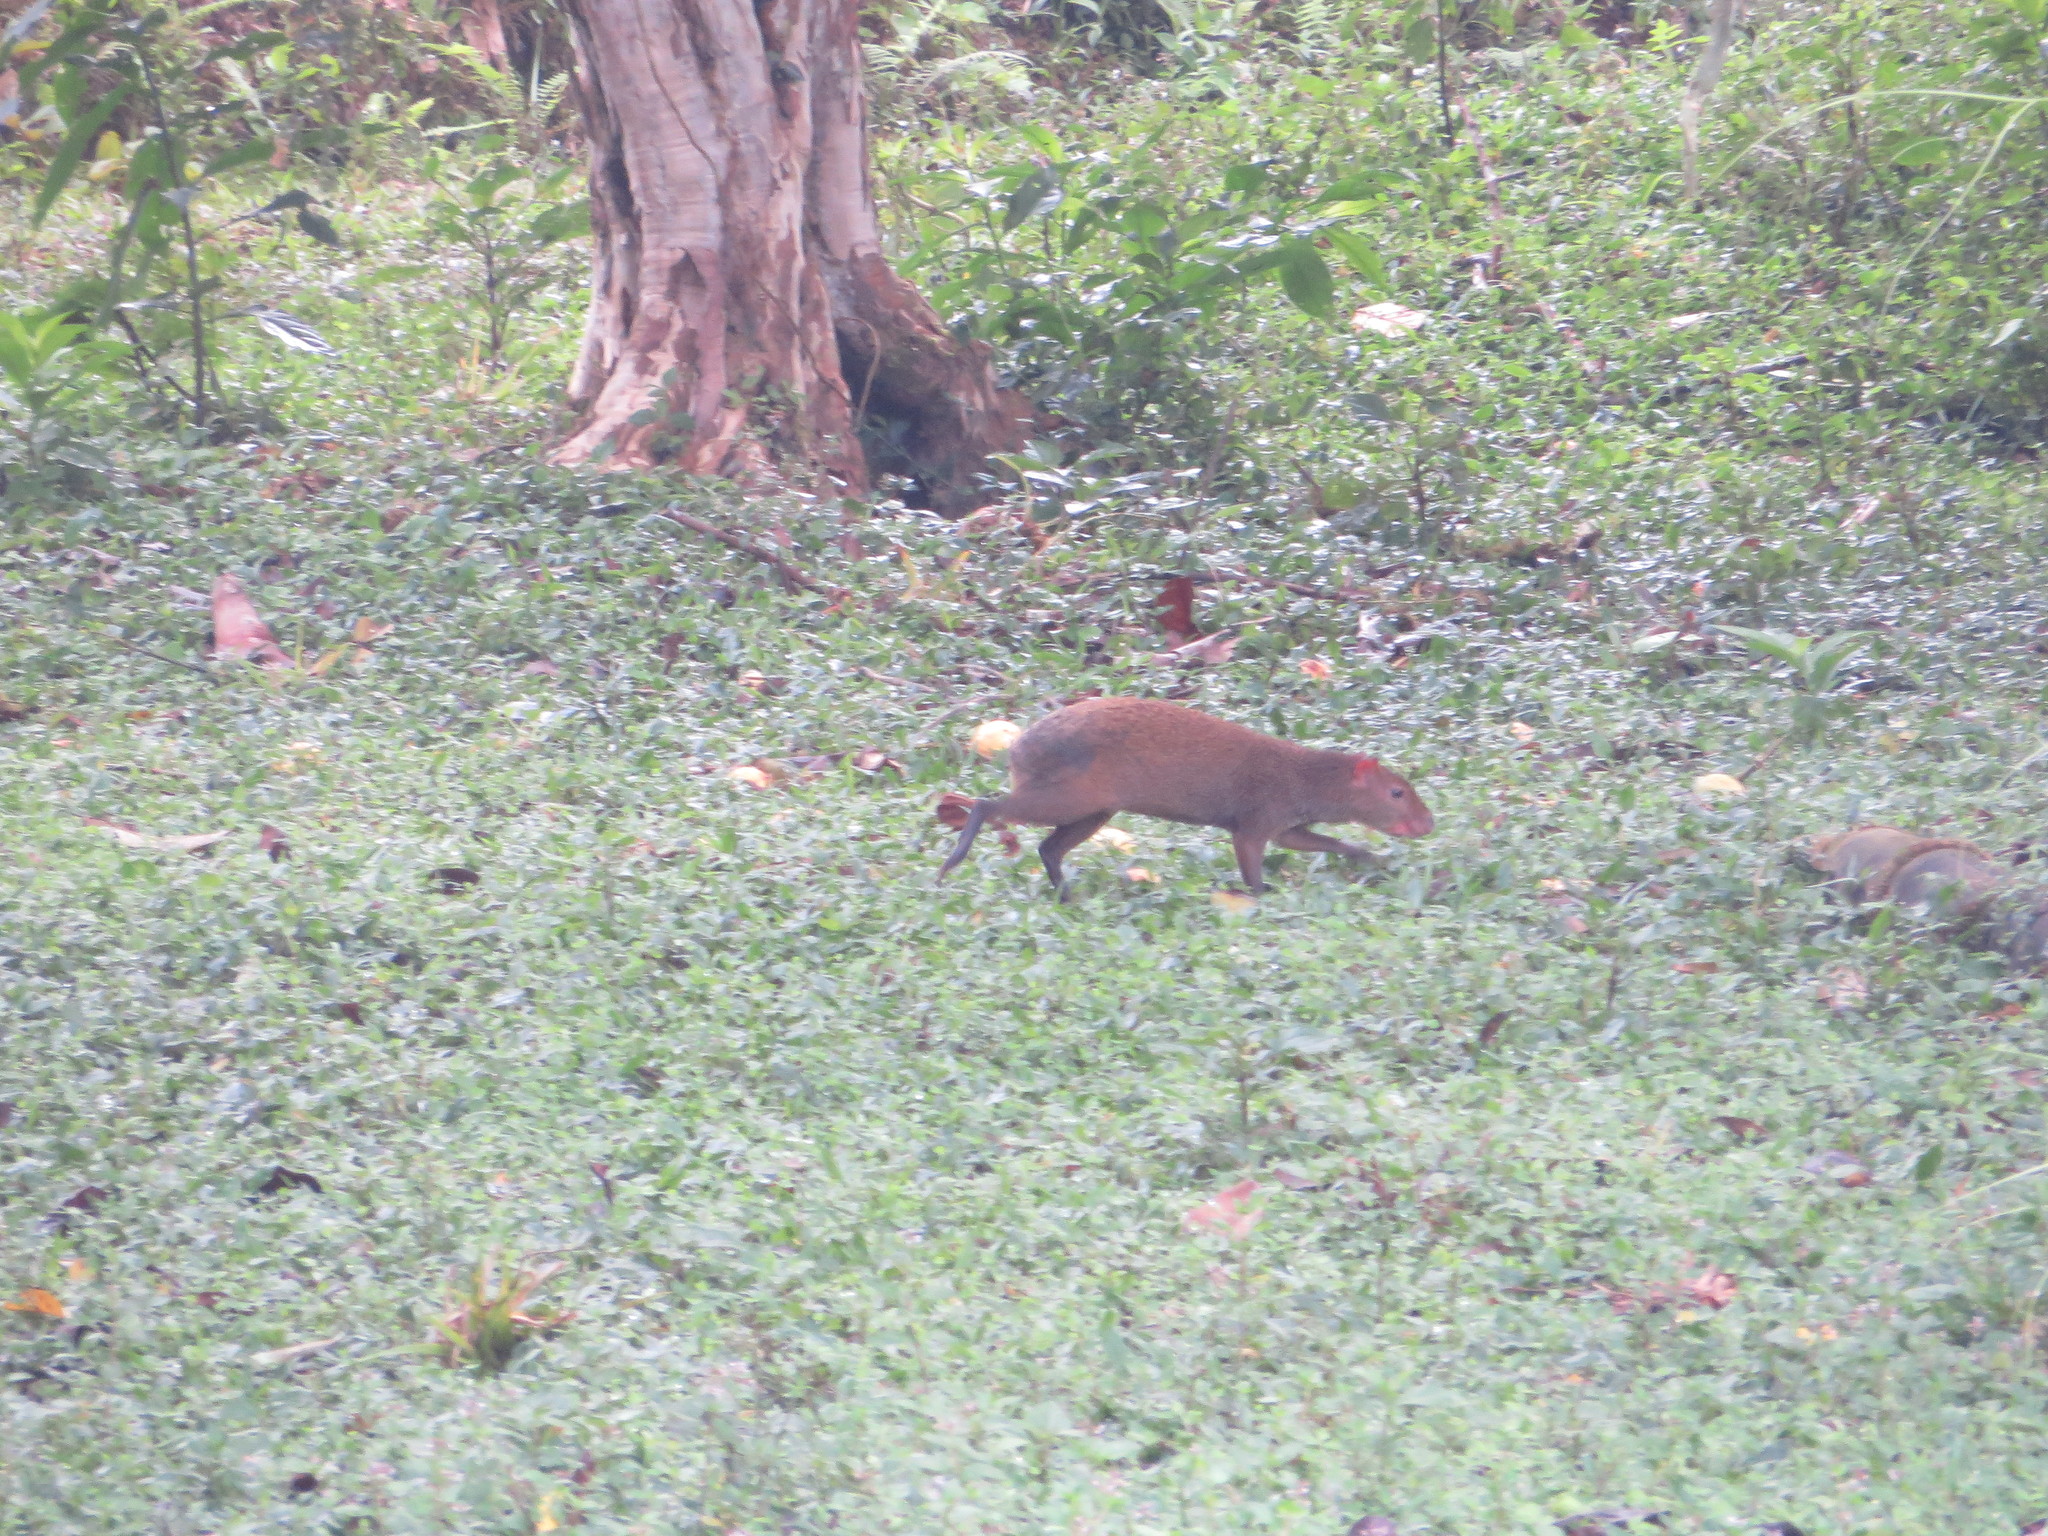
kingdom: Animalia
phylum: Chordata
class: Mammalia
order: Rodentia
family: Dasyproctidae
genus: Dasyprocta
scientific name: Dasyprocta punctata
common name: Central american agouti
